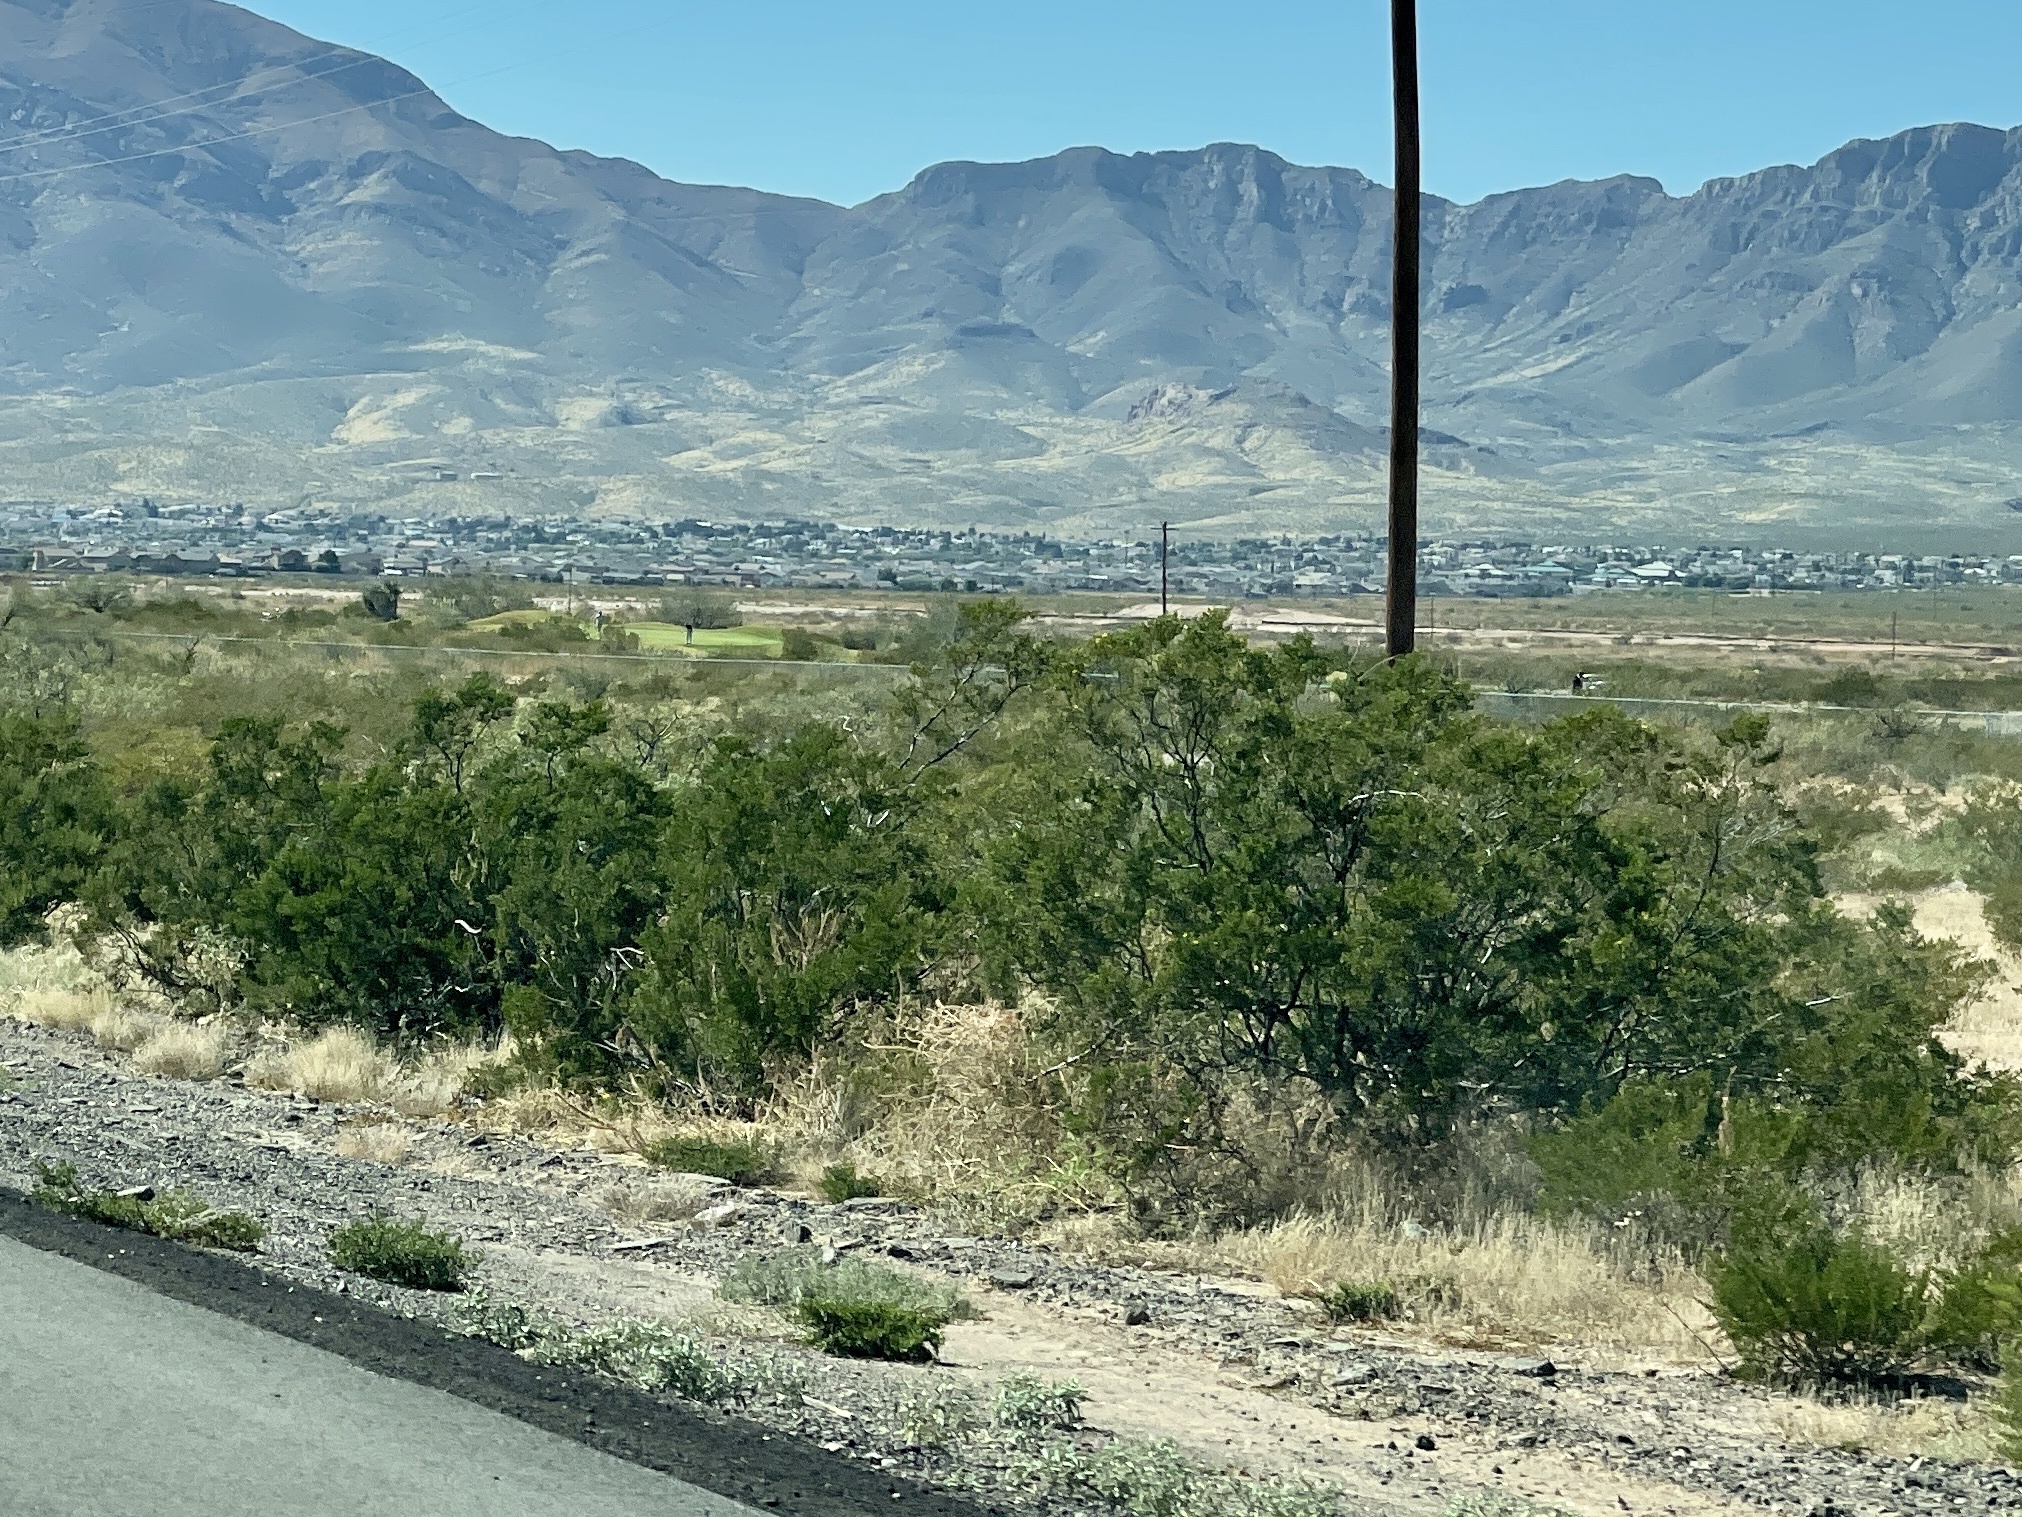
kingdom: Plantae
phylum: Tracheophyta
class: Magnoliopsida
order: Zygophyllales
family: Zygophyllaceae
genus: Larrea
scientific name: Larrea tridentata
